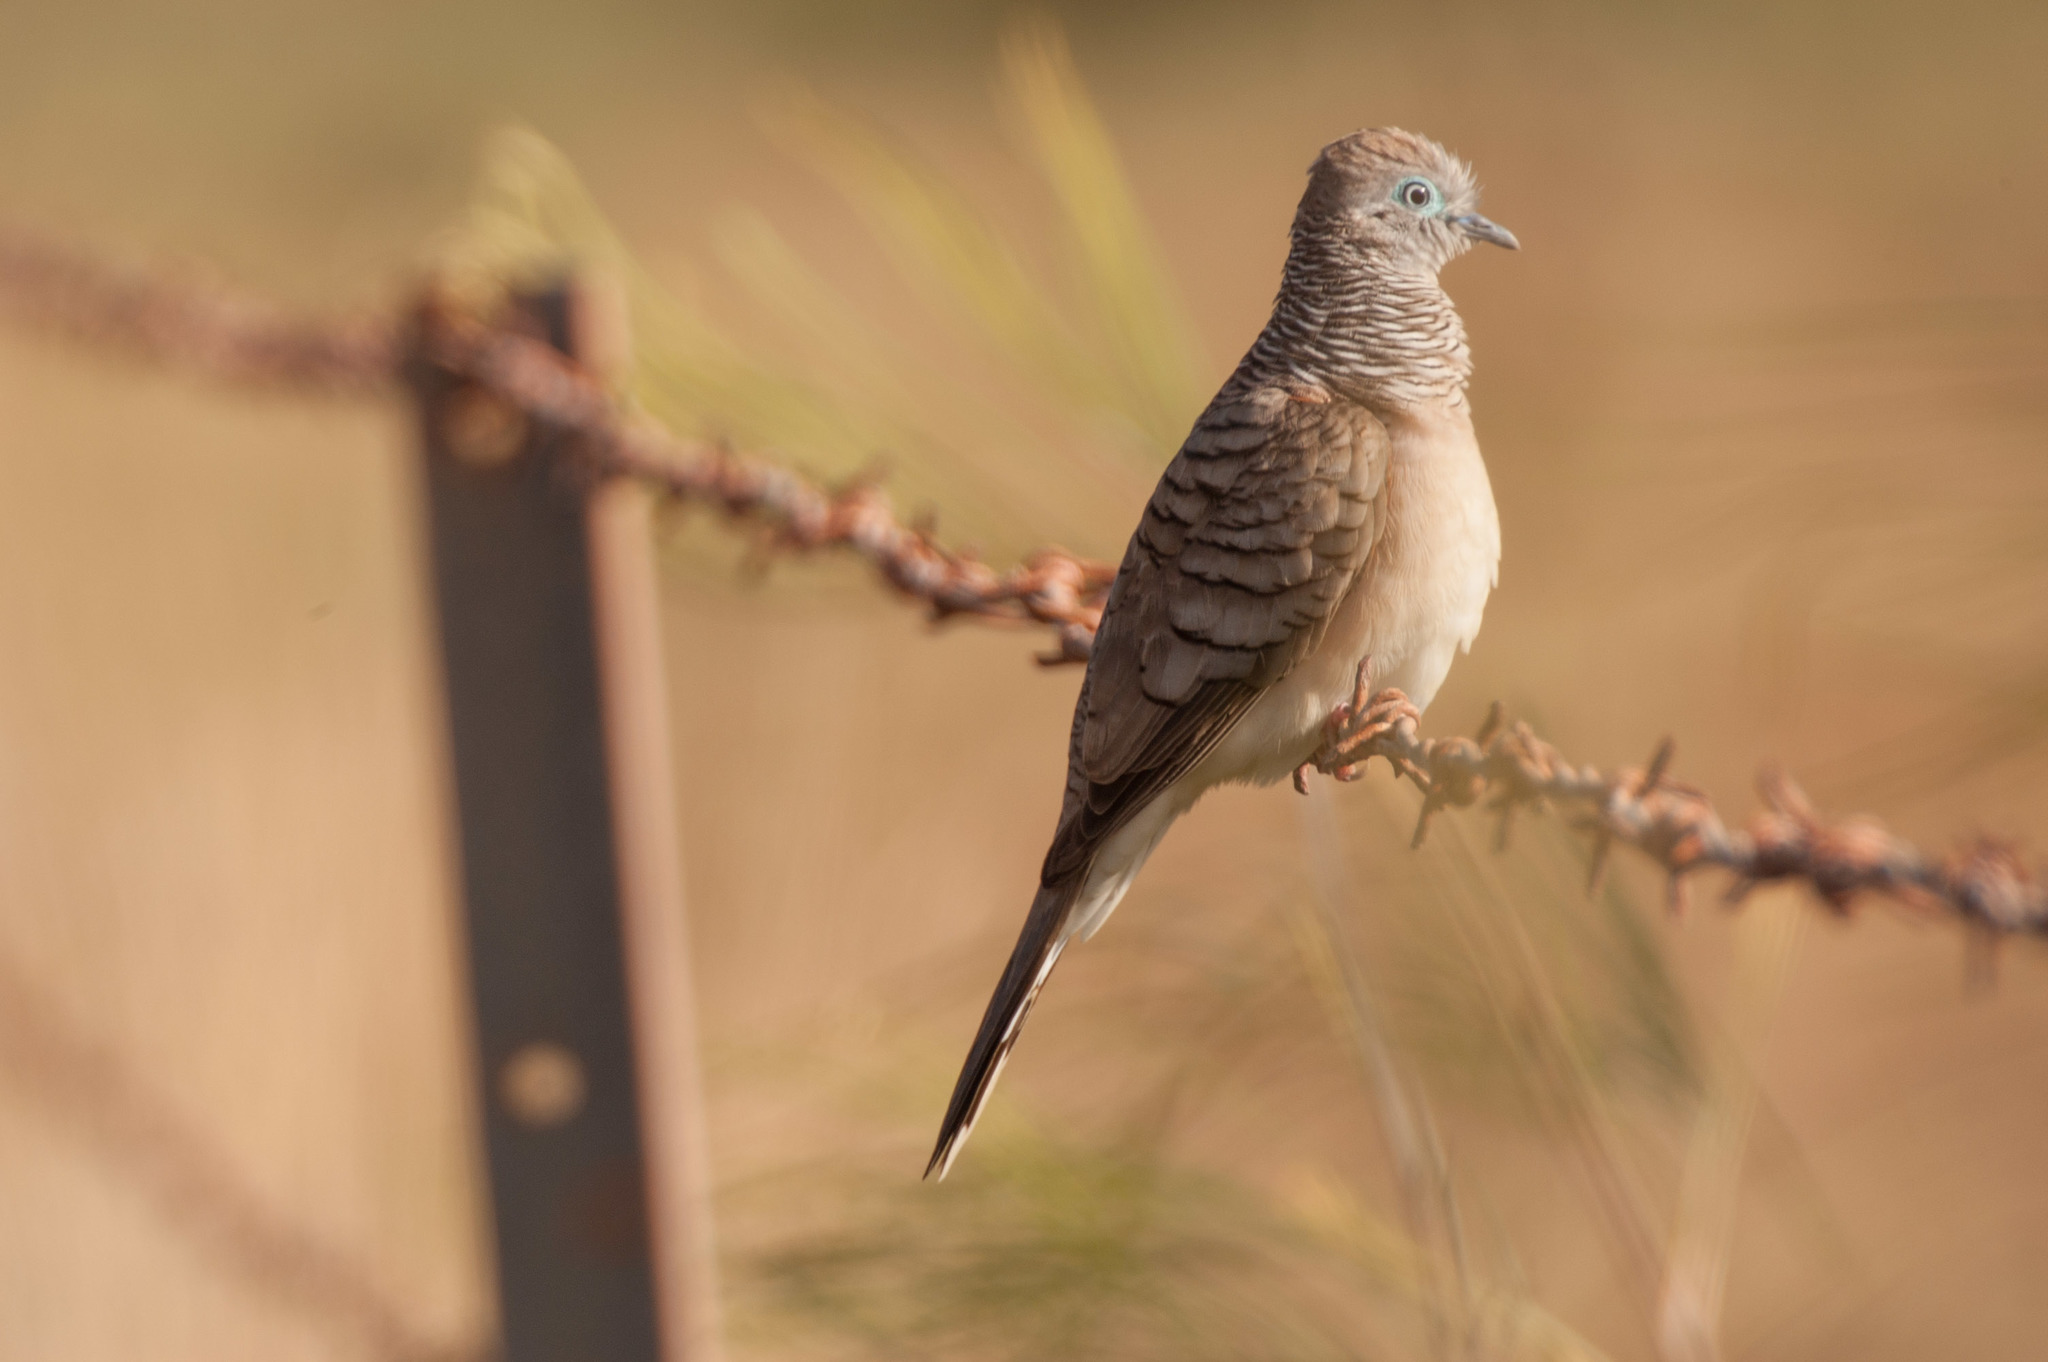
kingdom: Animalia
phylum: Chordata
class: Aves
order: Columbiformes
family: Columbidae
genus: Geopelia
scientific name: Geopelia placida
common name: Peaceful dove
